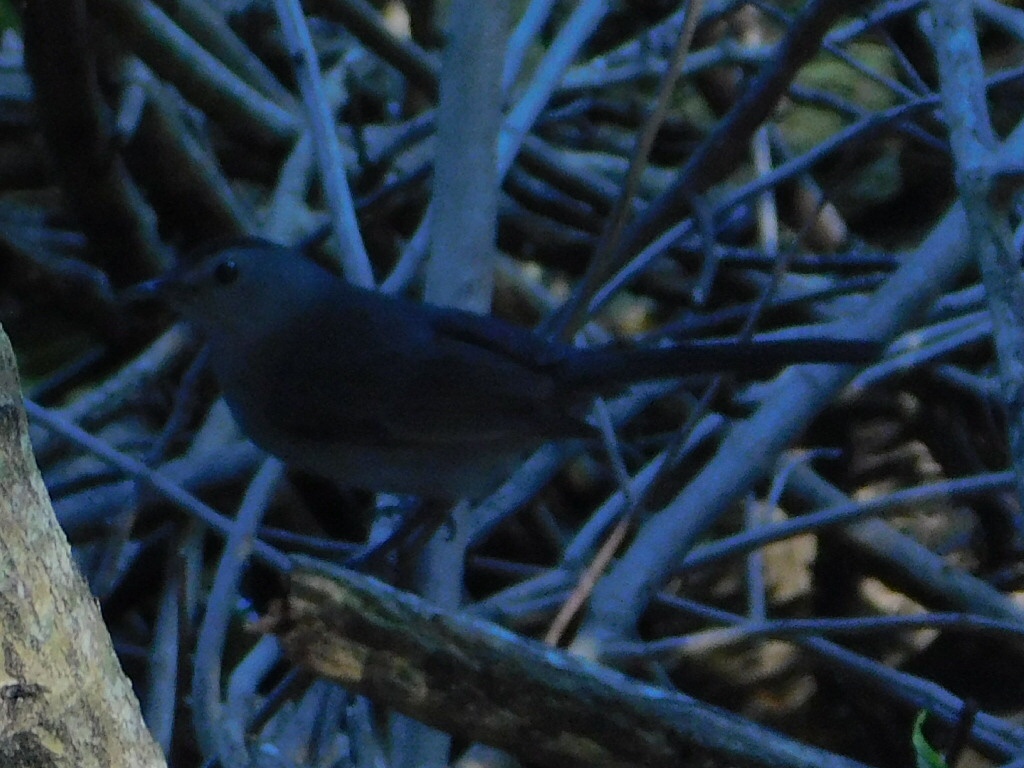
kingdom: Animalia
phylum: Chordata
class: Aves
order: Passeriformes
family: Mimidae
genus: Dumetella
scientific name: Dumetella carolinensis
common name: Gray catbird
